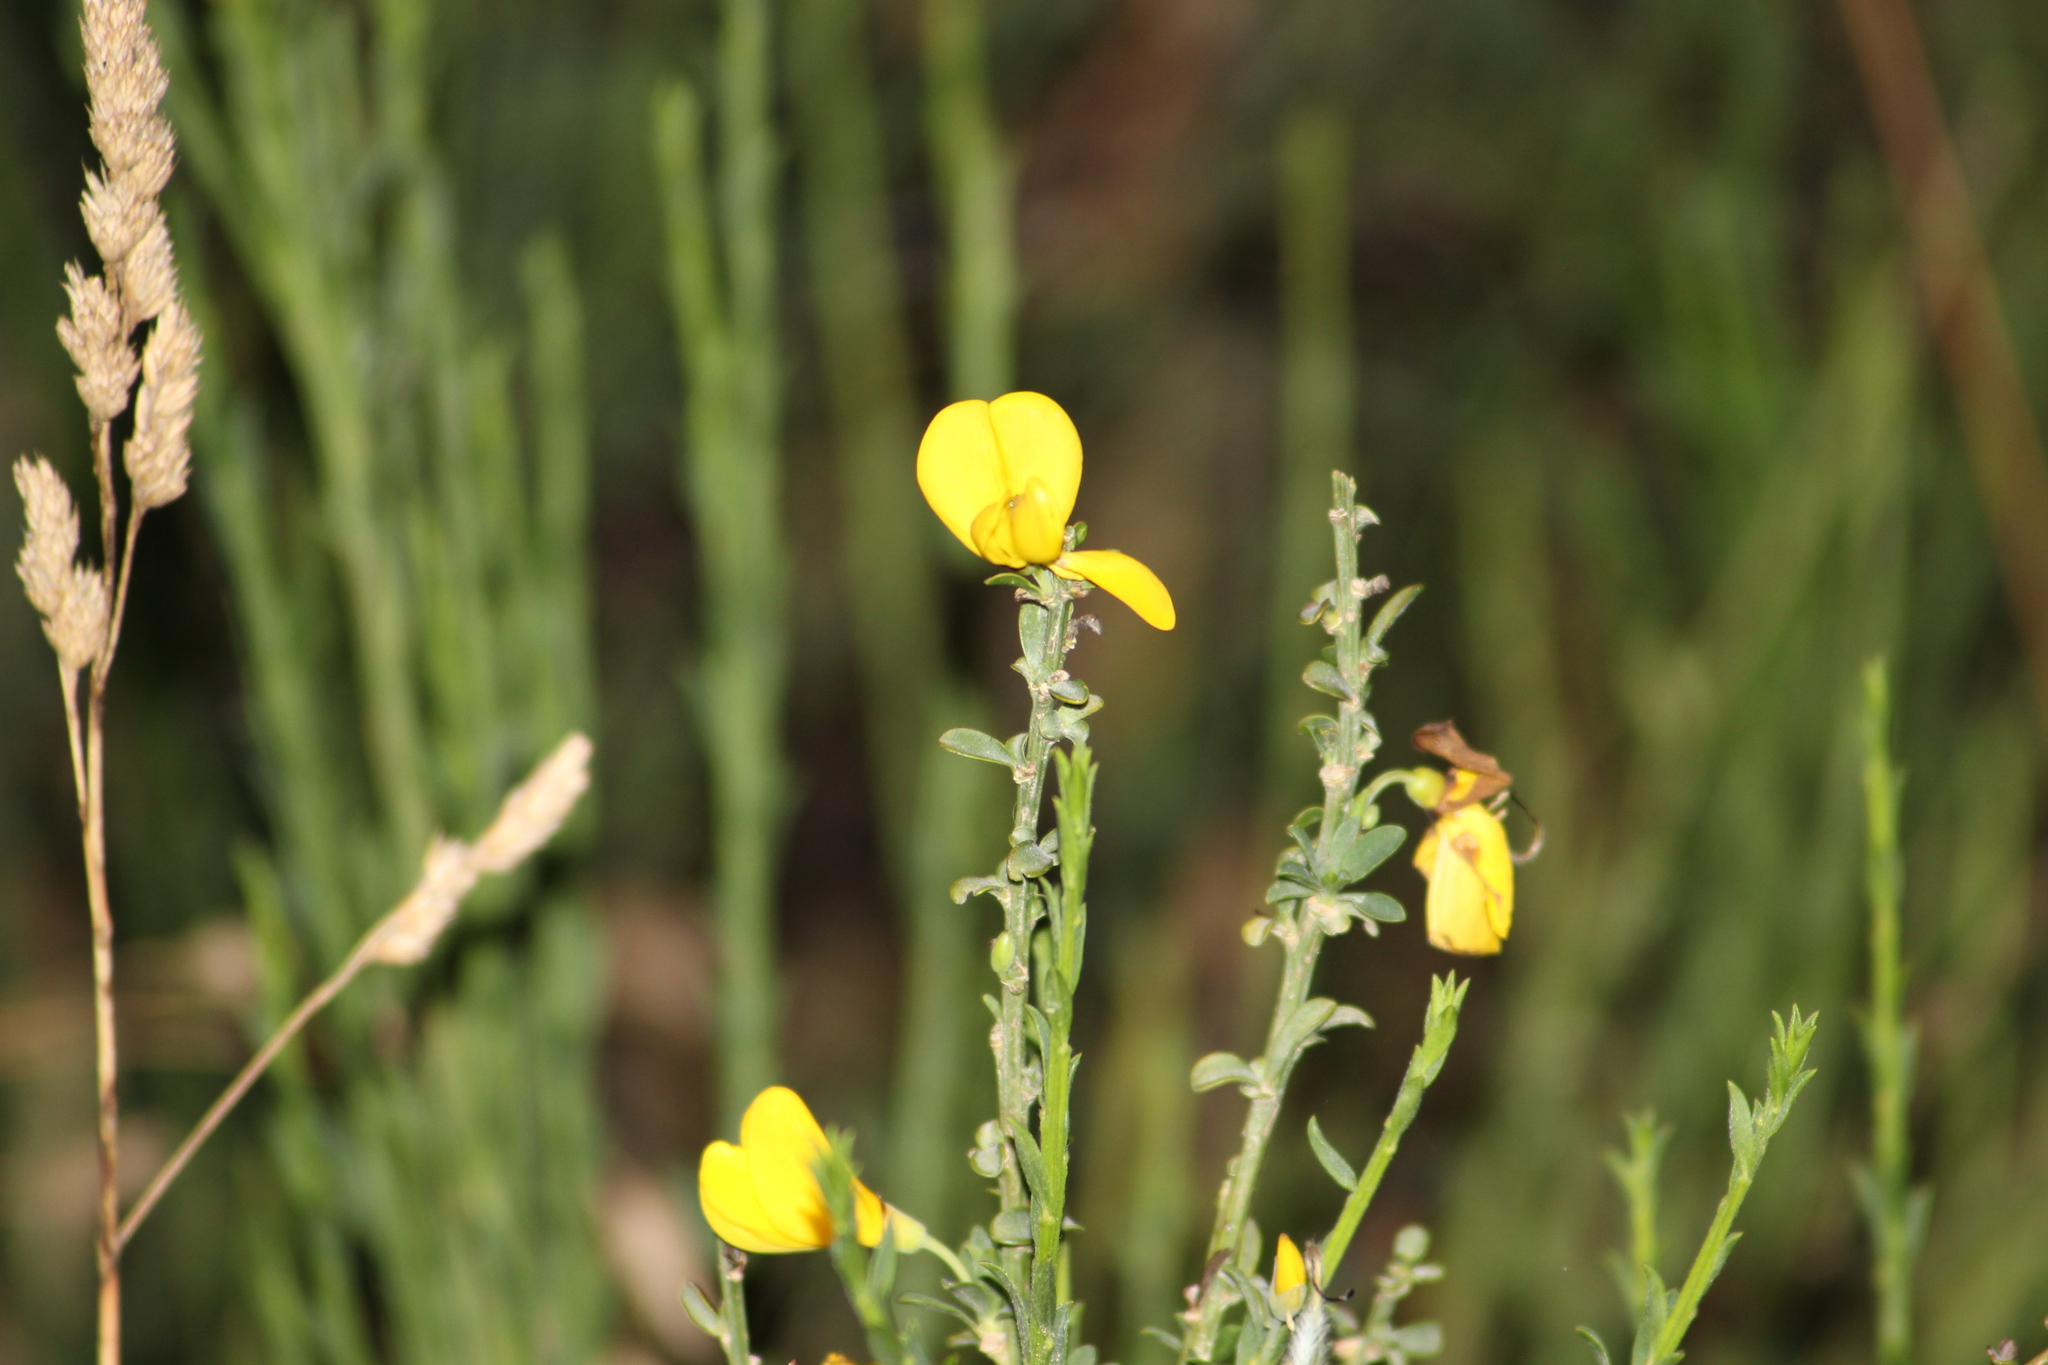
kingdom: Plantae
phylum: Tracheophyta
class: Magnoliopsida
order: Fabales
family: Fabaceae
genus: Cytisus
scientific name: Cytisus scoparius
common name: Scotch broom
